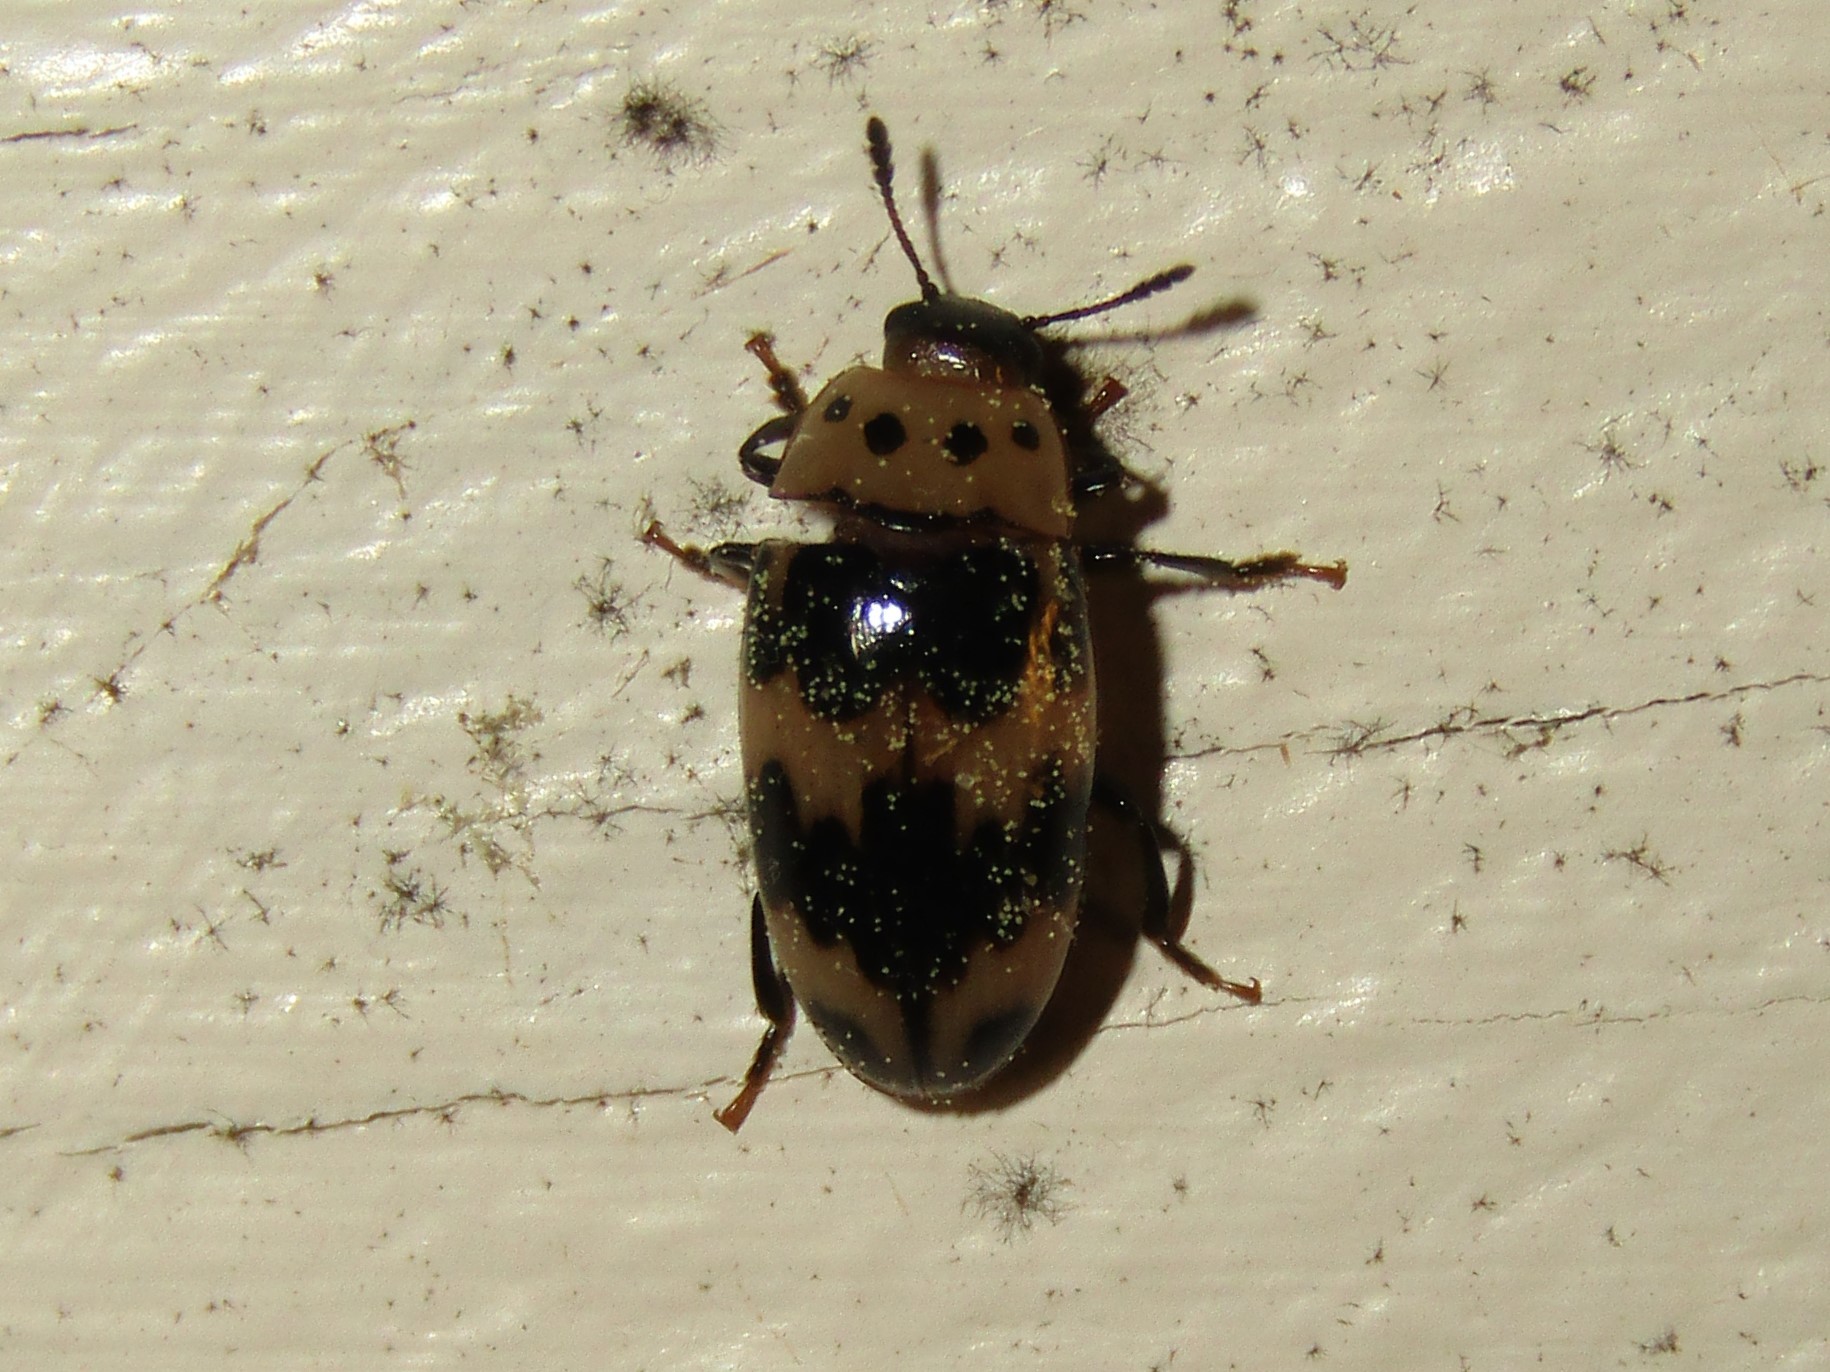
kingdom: Animalia
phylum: Arthropoda
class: Insecta
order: Coleoptera
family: Erotylidae
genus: Ischyrus
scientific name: Ischyrus quadripunctatus
